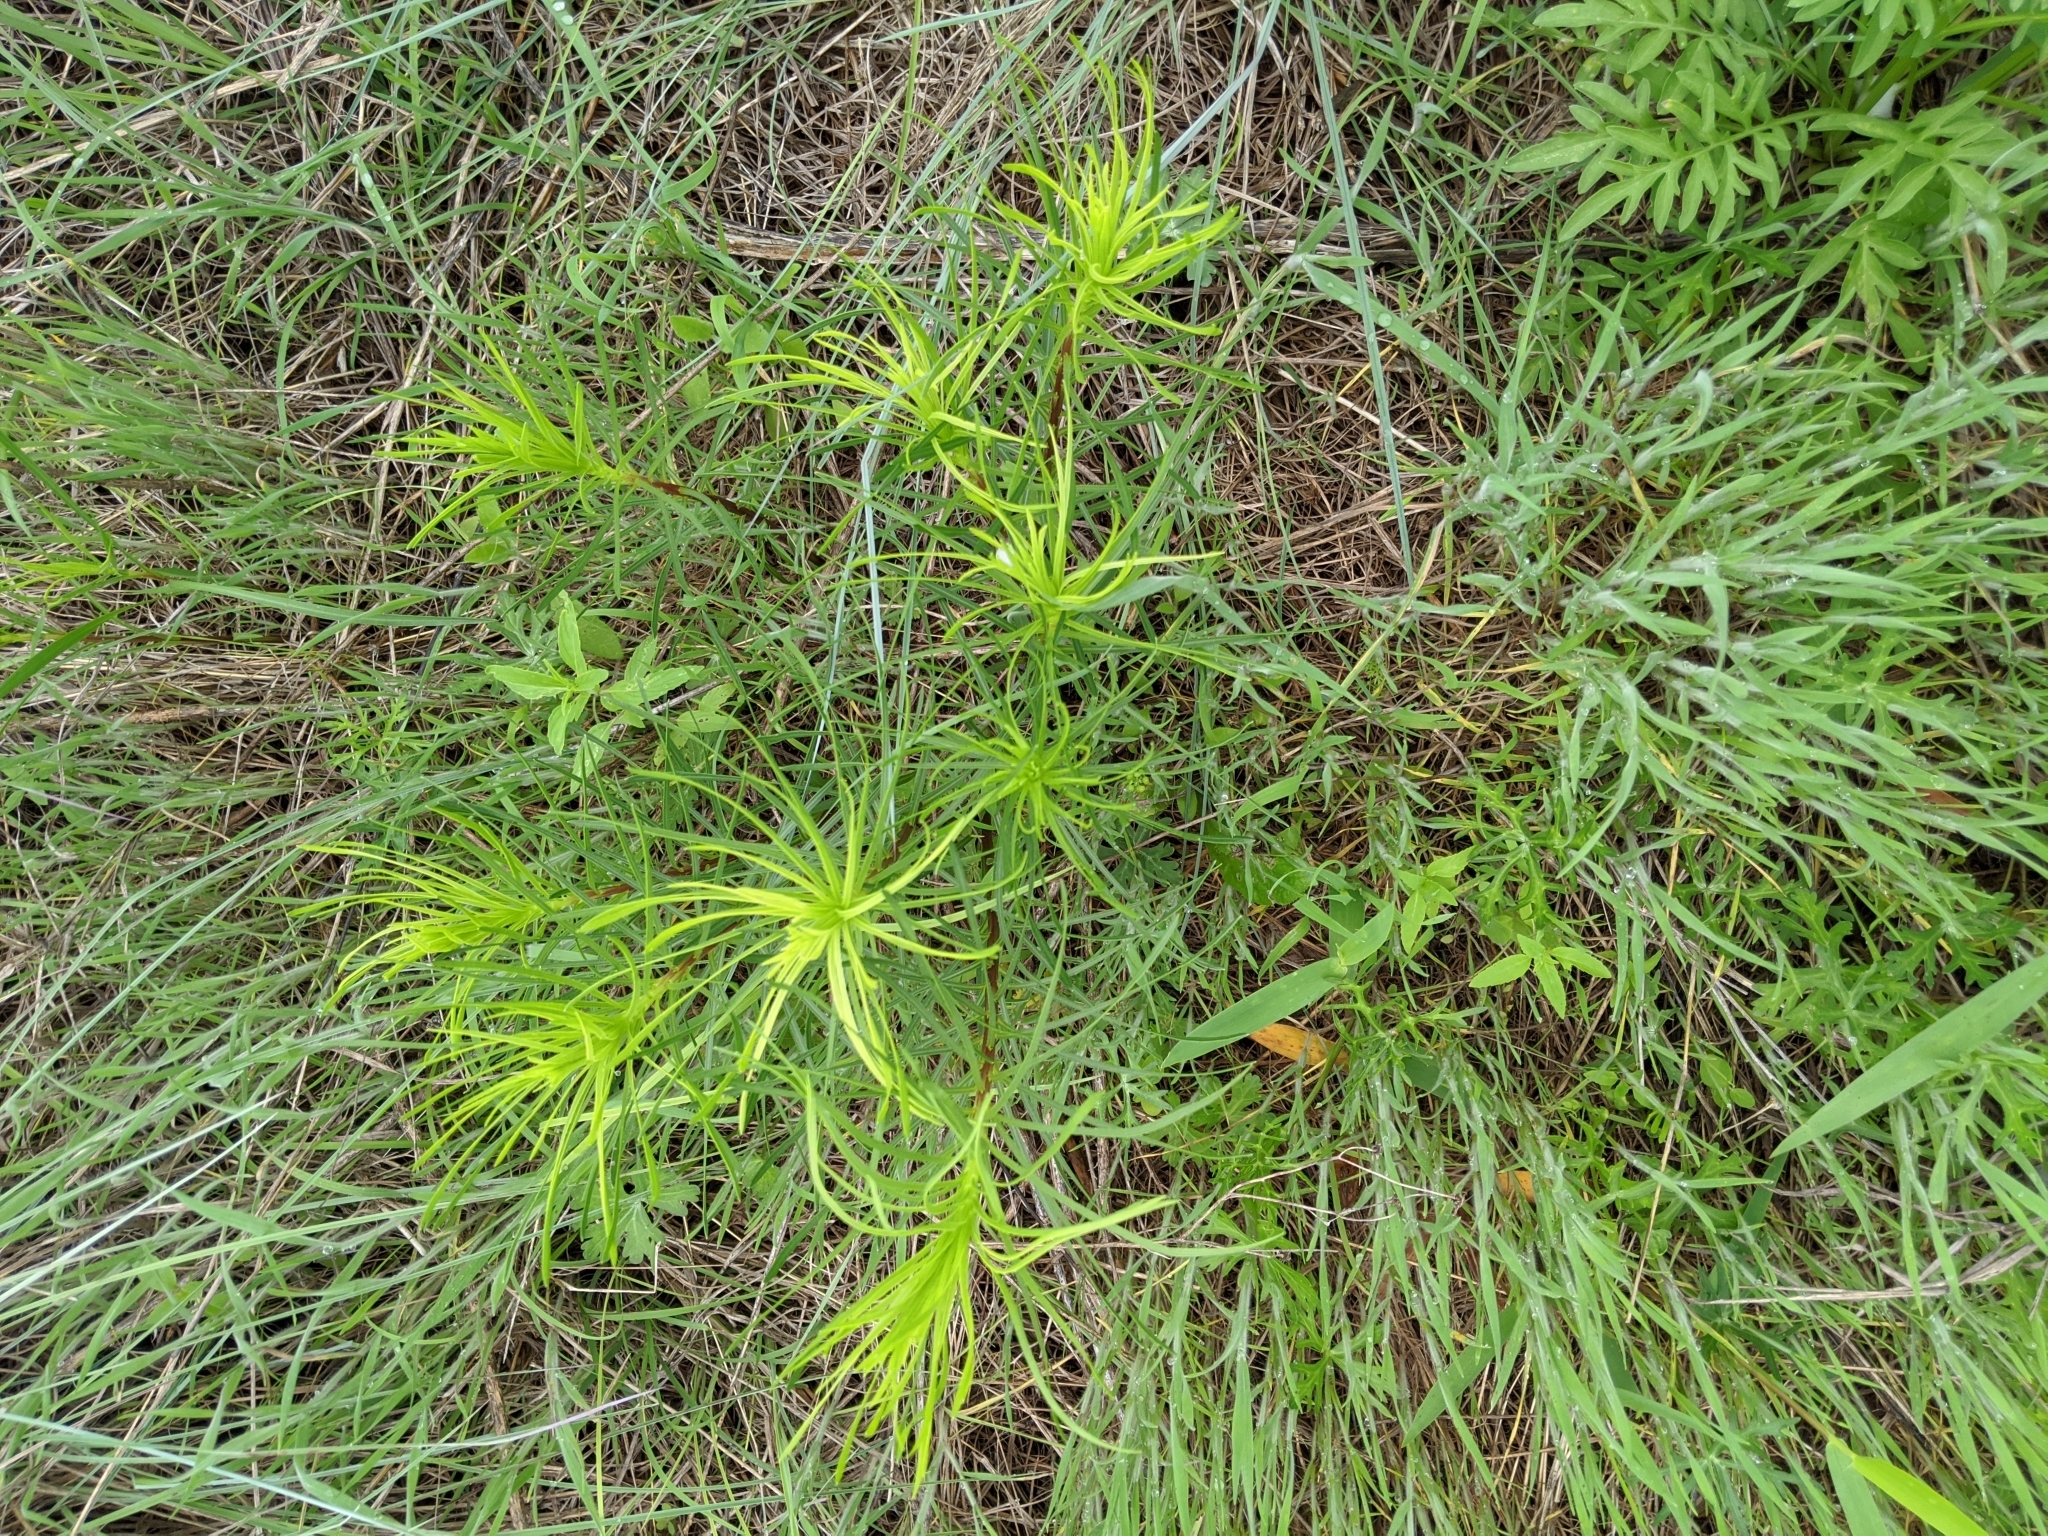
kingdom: Plantae
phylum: Tracheophyta
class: Magnoliopsida
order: Malpighiales
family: Euphorbiaceae
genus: Stillingia
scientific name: Stillingia texana
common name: Texas stillingia
